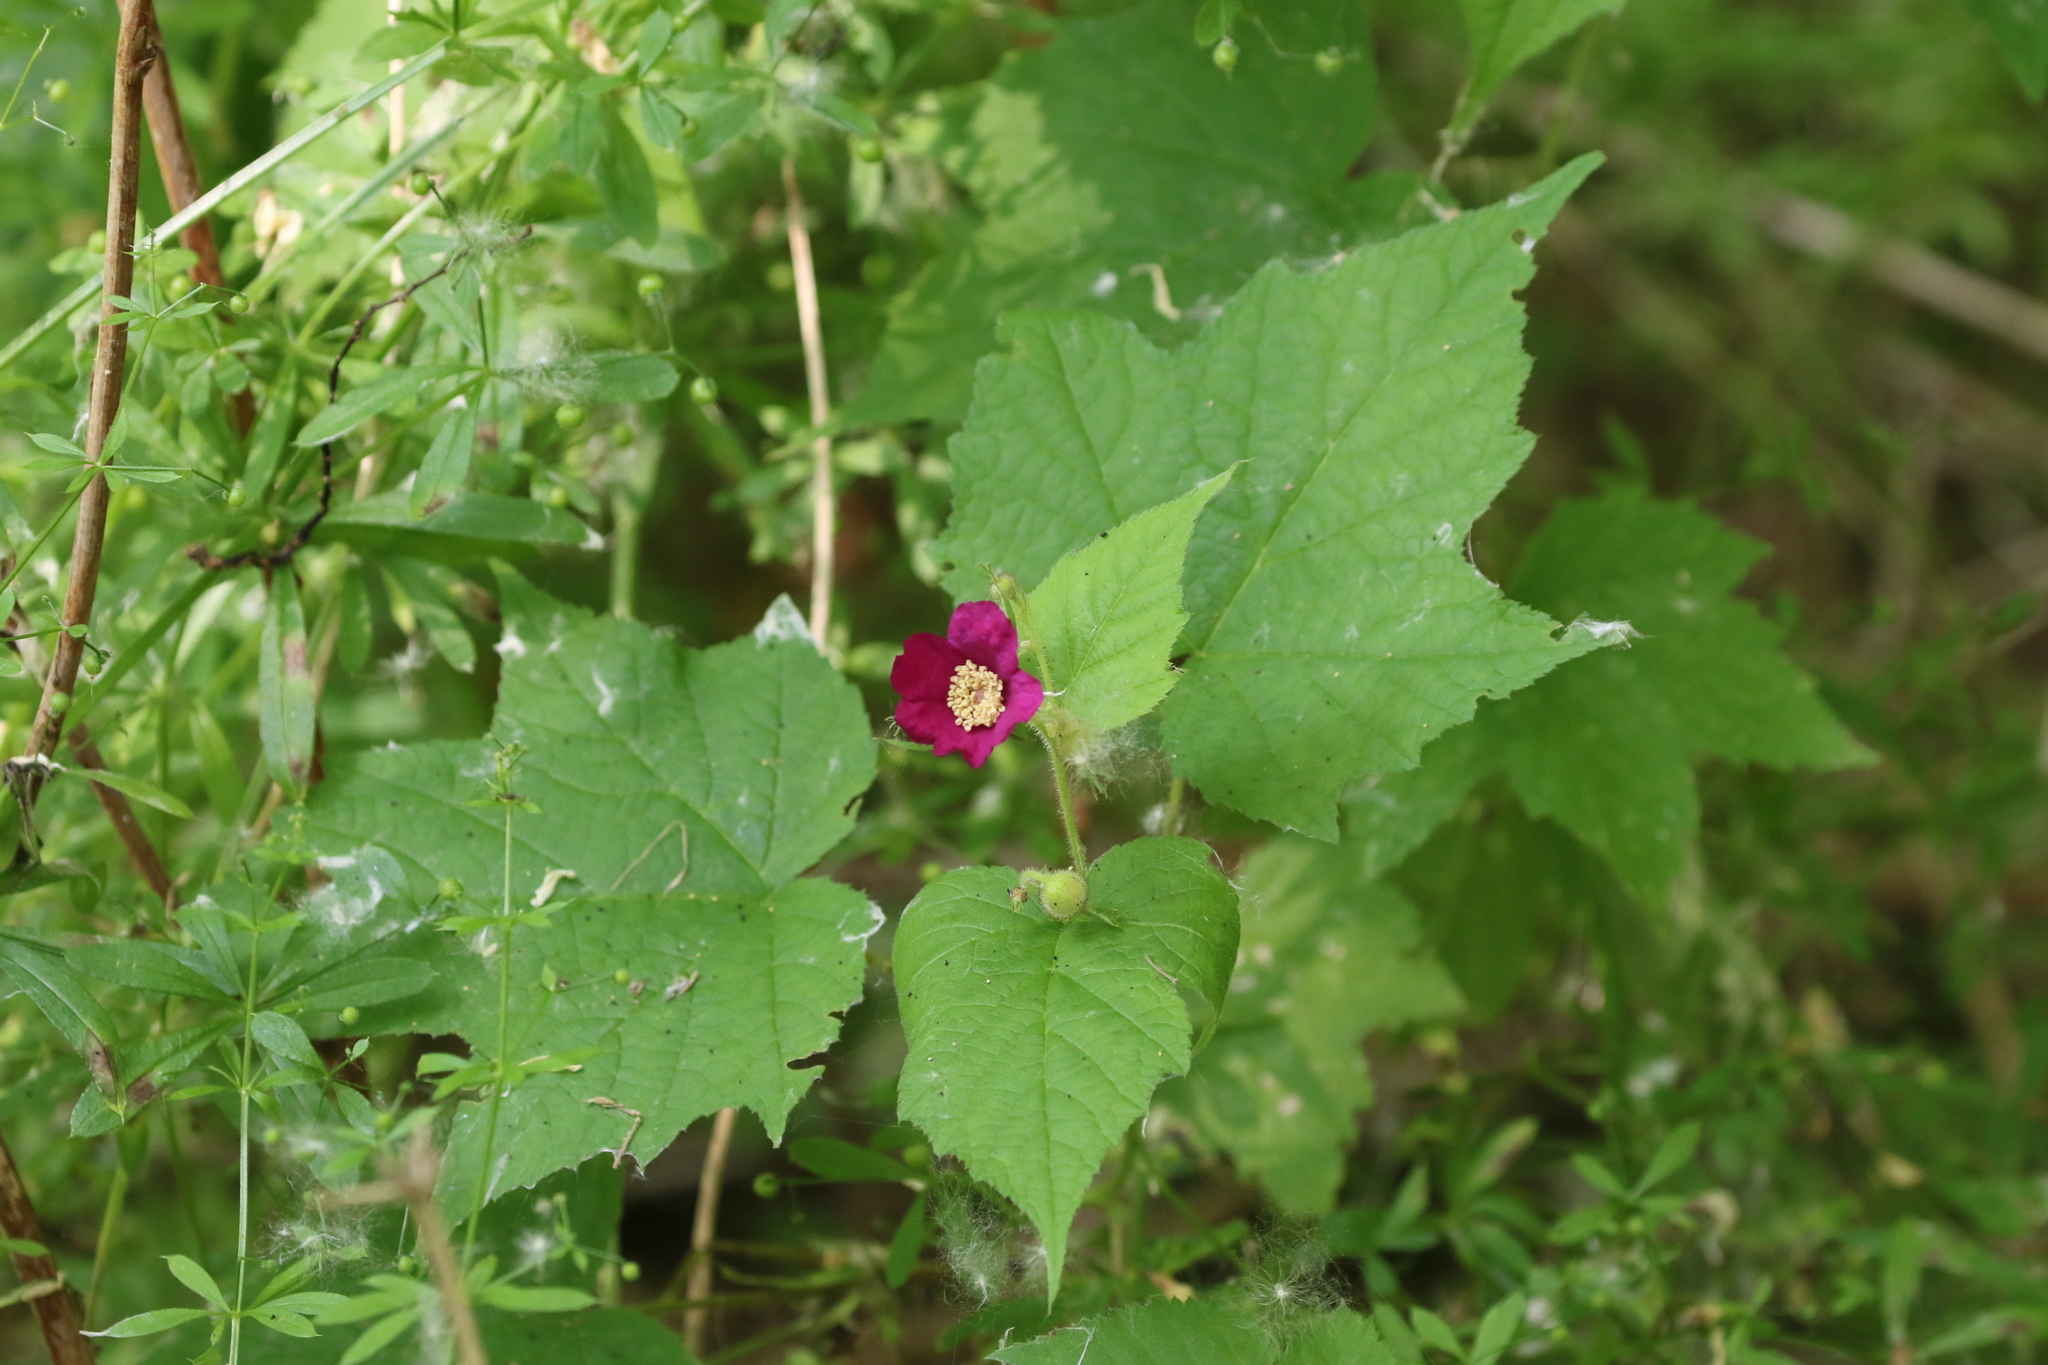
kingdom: Plantae
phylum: Tracheophyta
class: Magnoliopsida
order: Rosales
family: Rosaceae
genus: Rubus
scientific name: Rubus odoratus
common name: Purple-flowered raspberry
